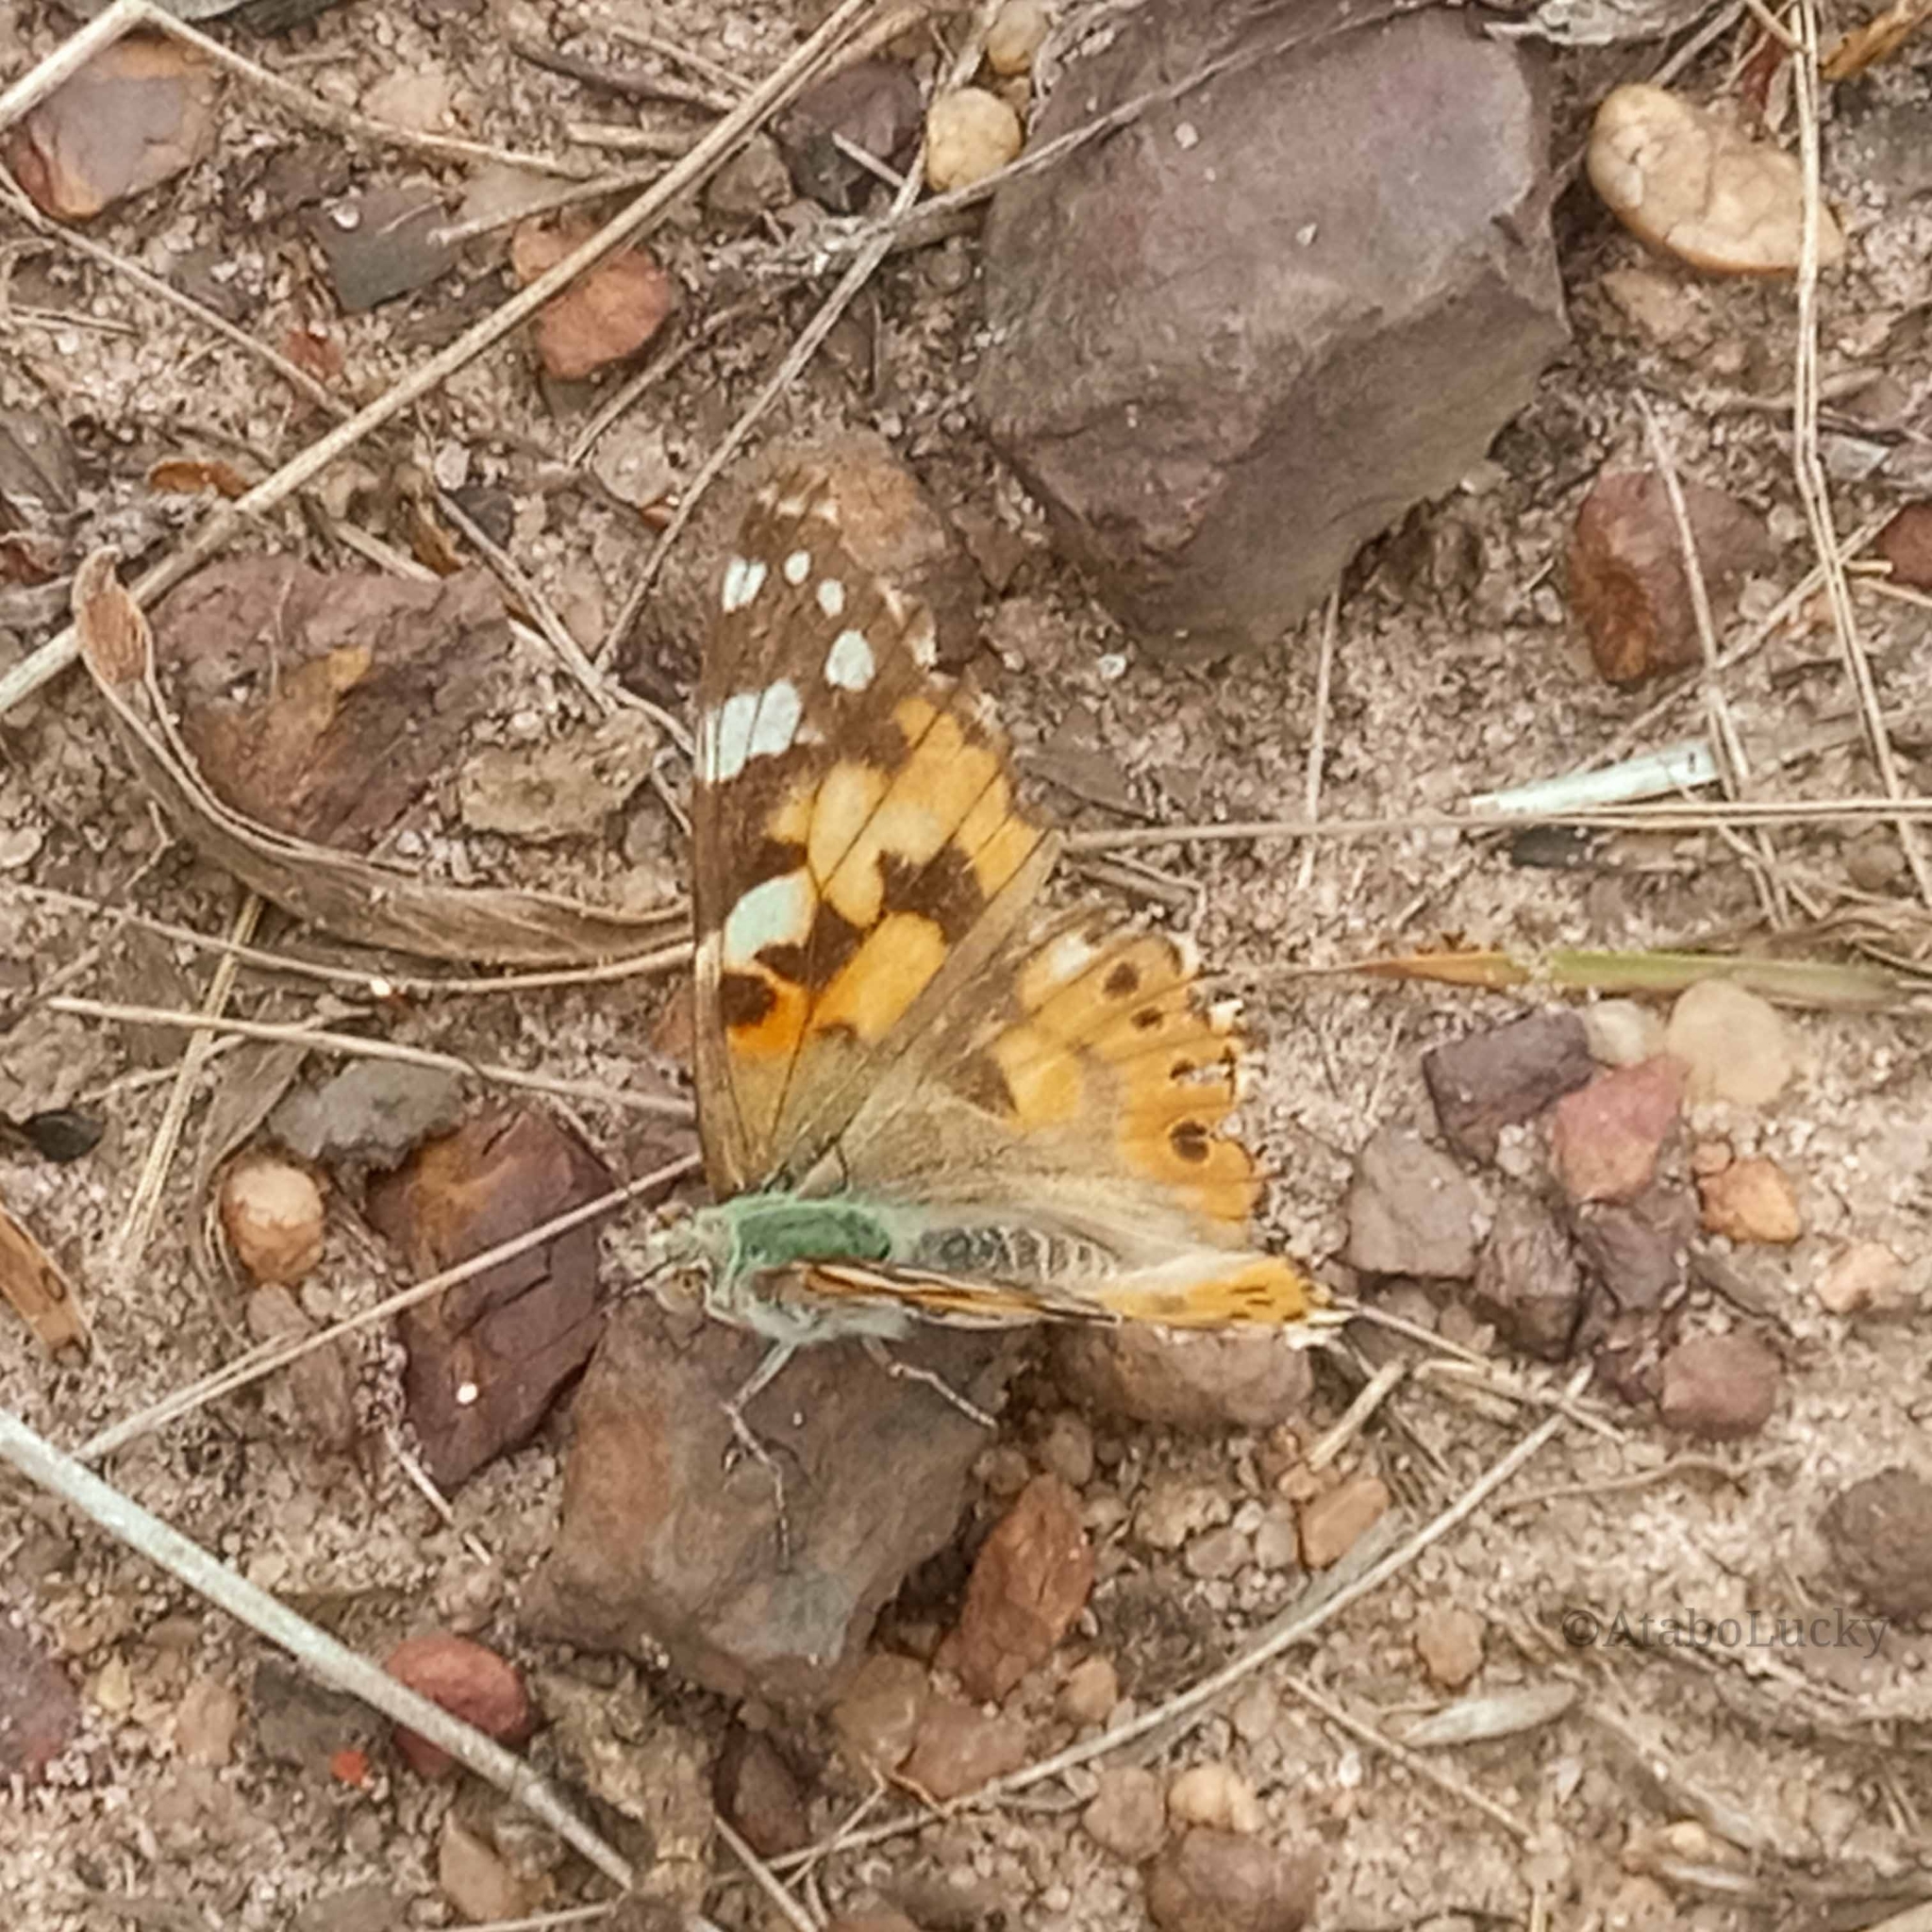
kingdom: Animalia
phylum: Arthropoda
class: Insecta
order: Lepidoptera
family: Nymphalidae
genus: Vanessa
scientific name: Vanessa cardui
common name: Painted lady
